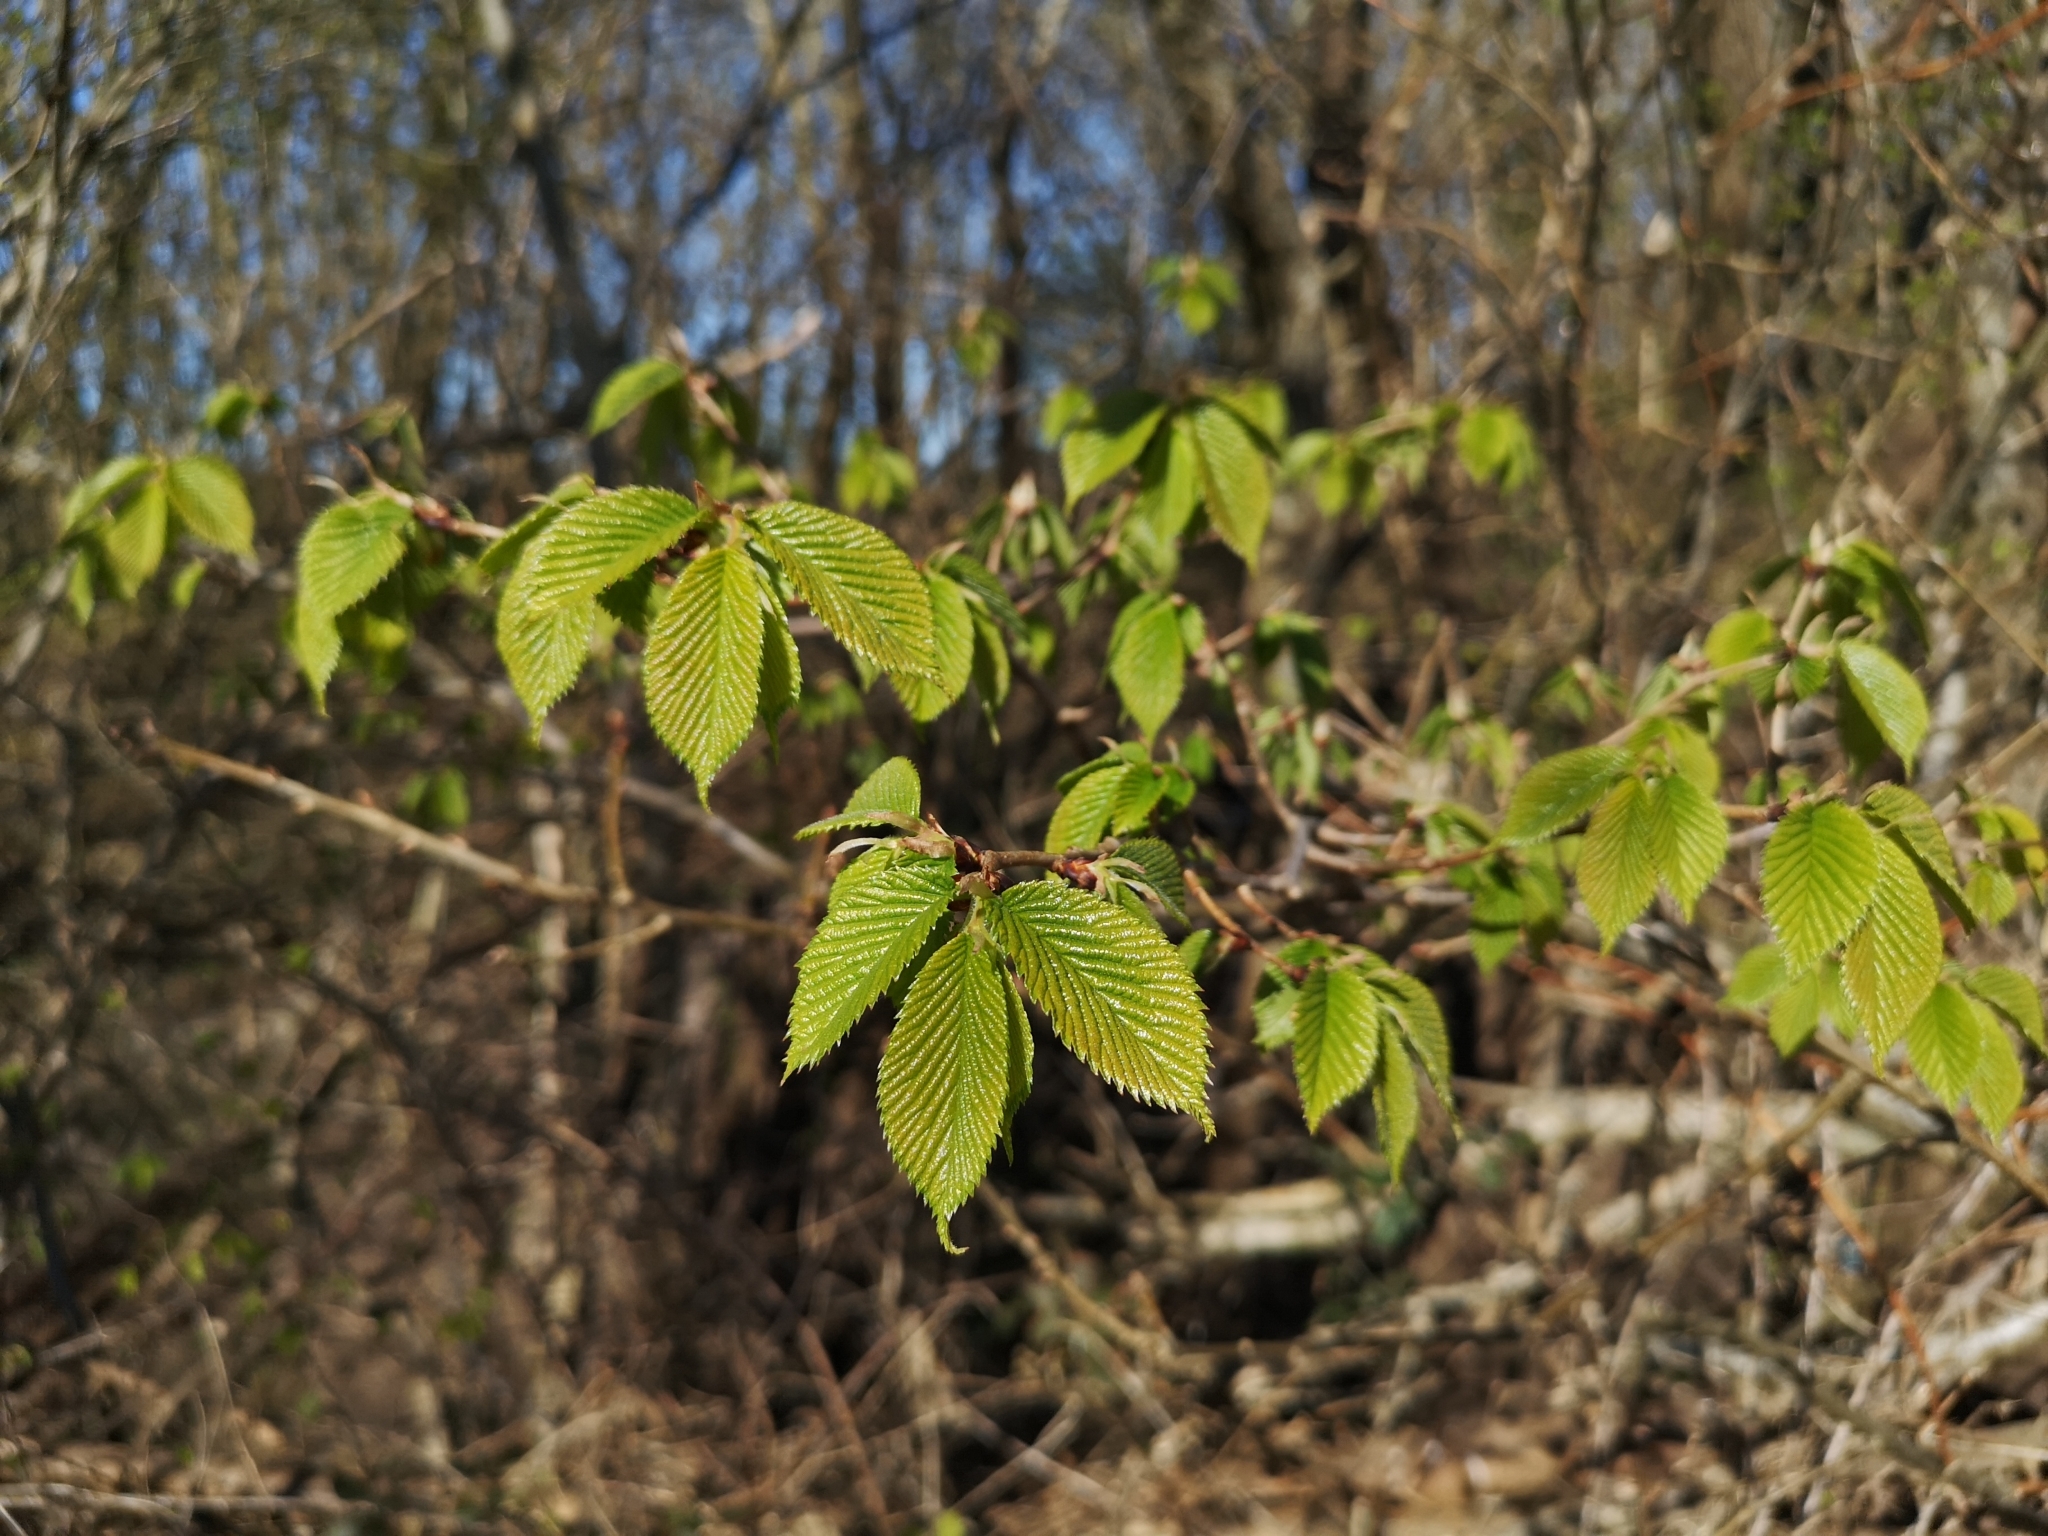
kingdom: Plantae
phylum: Tracheophyta
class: Magnoliopsida
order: Rosales
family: Ulmaceae
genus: Ulmus
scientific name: Ulmus glabra
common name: Wych elm
